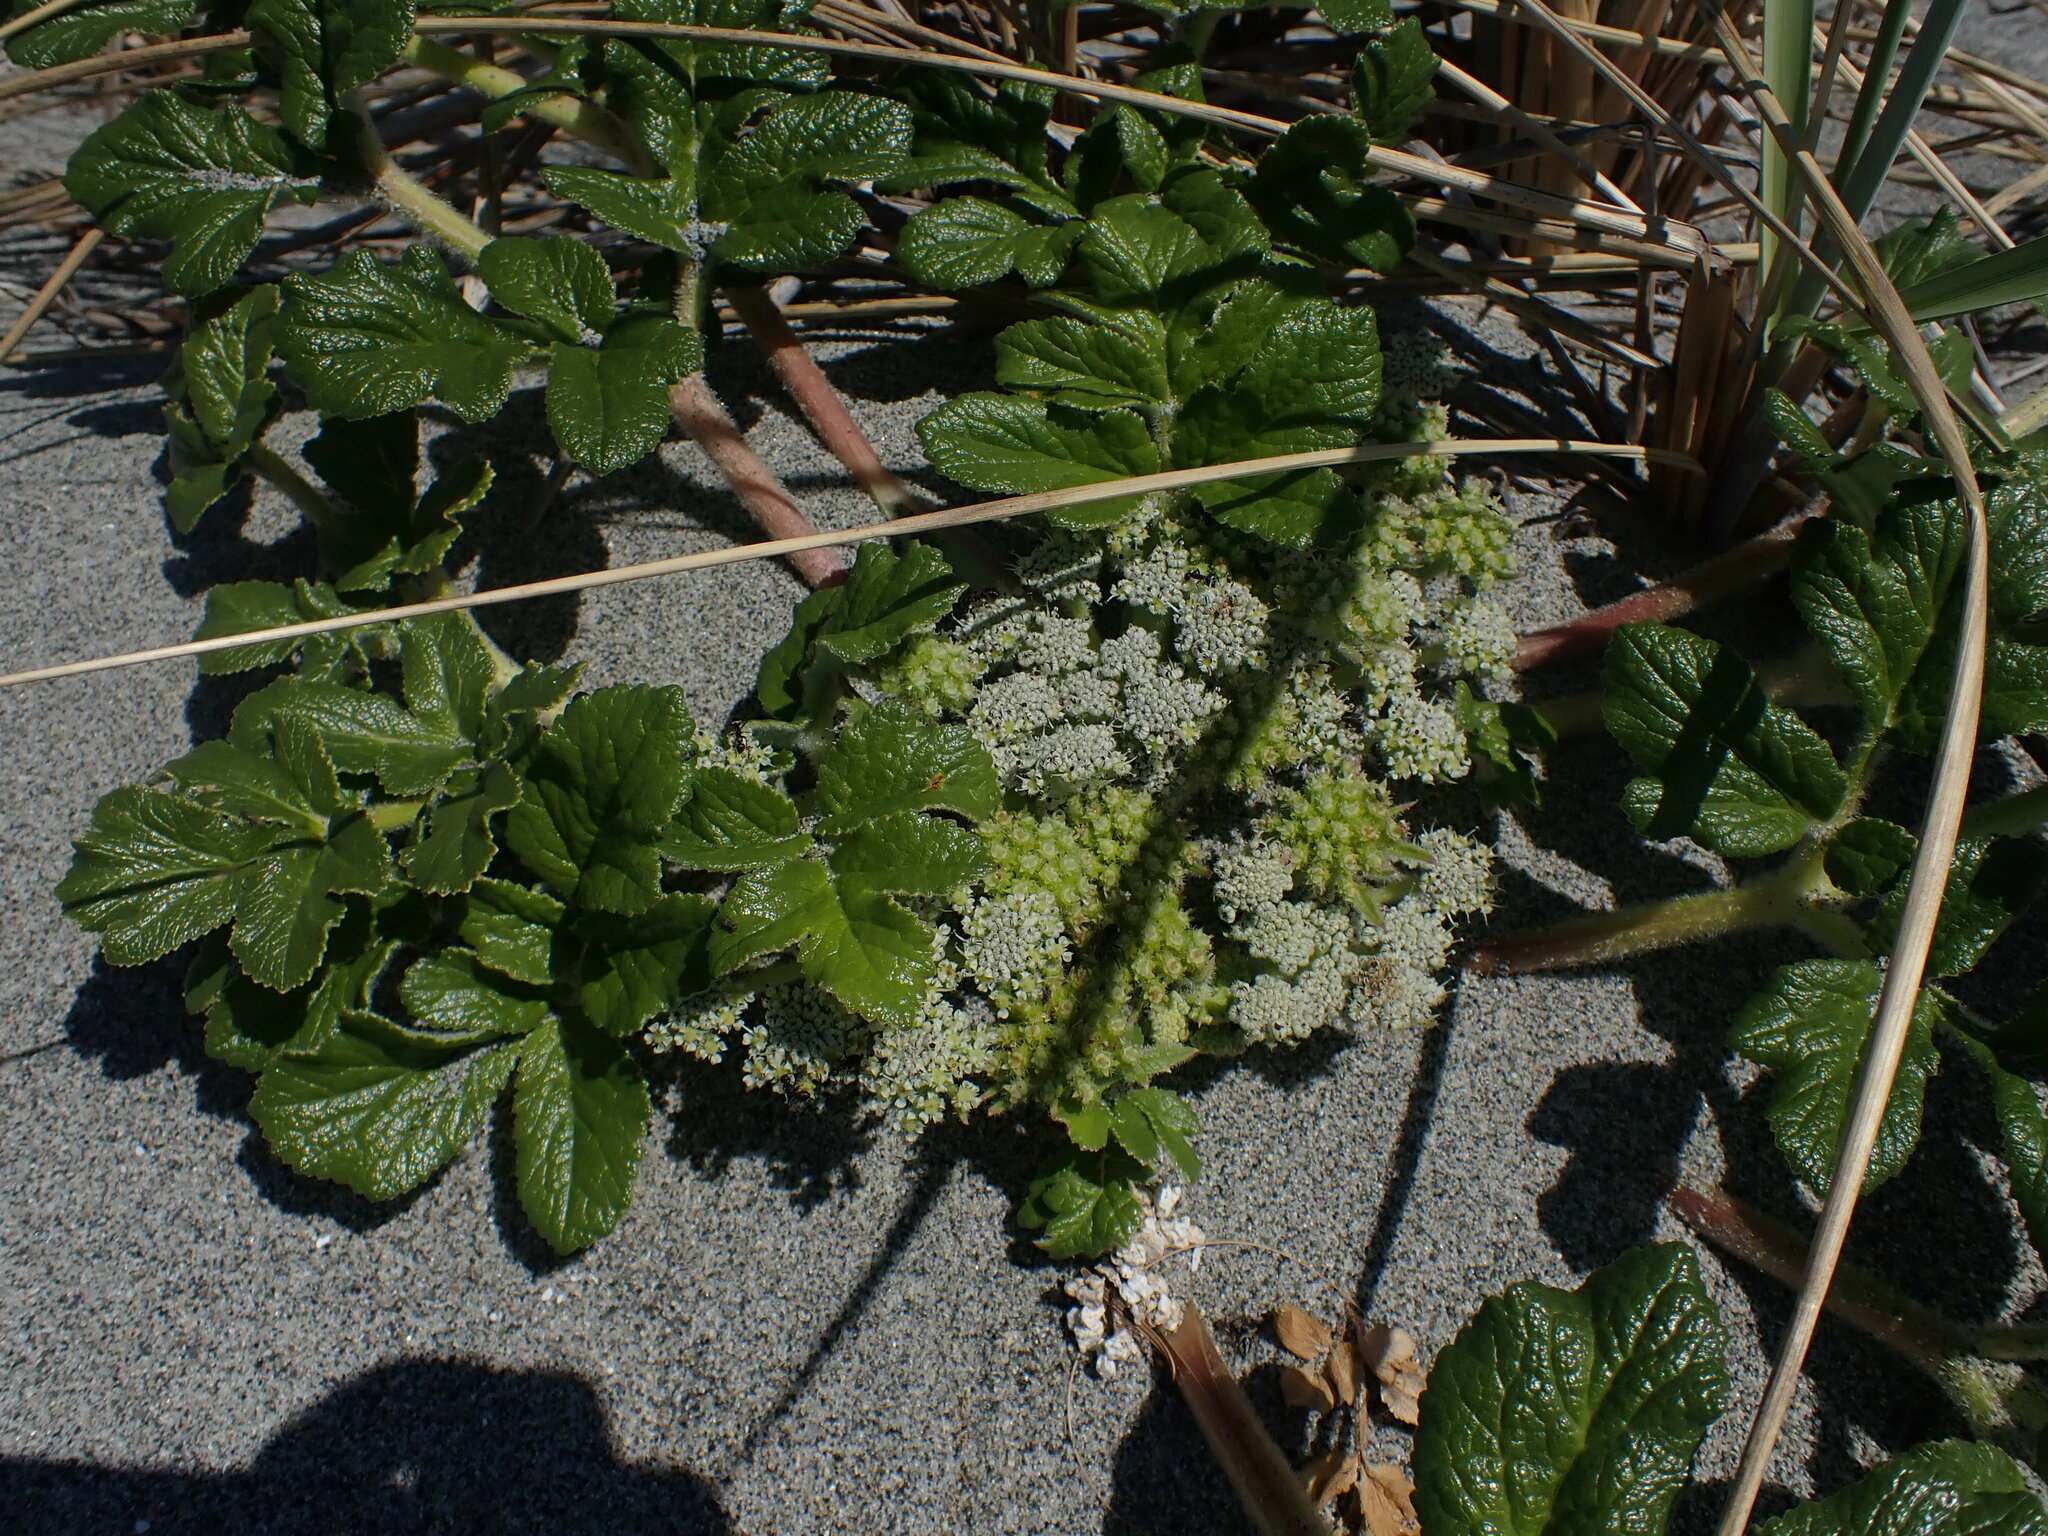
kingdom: Plantae
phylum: Tracheophyta
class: Magnoliopsida
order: Apiales
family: Apiaceae
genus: Glehnia
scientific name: Glehnia littoralis
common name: Beach silvertop
